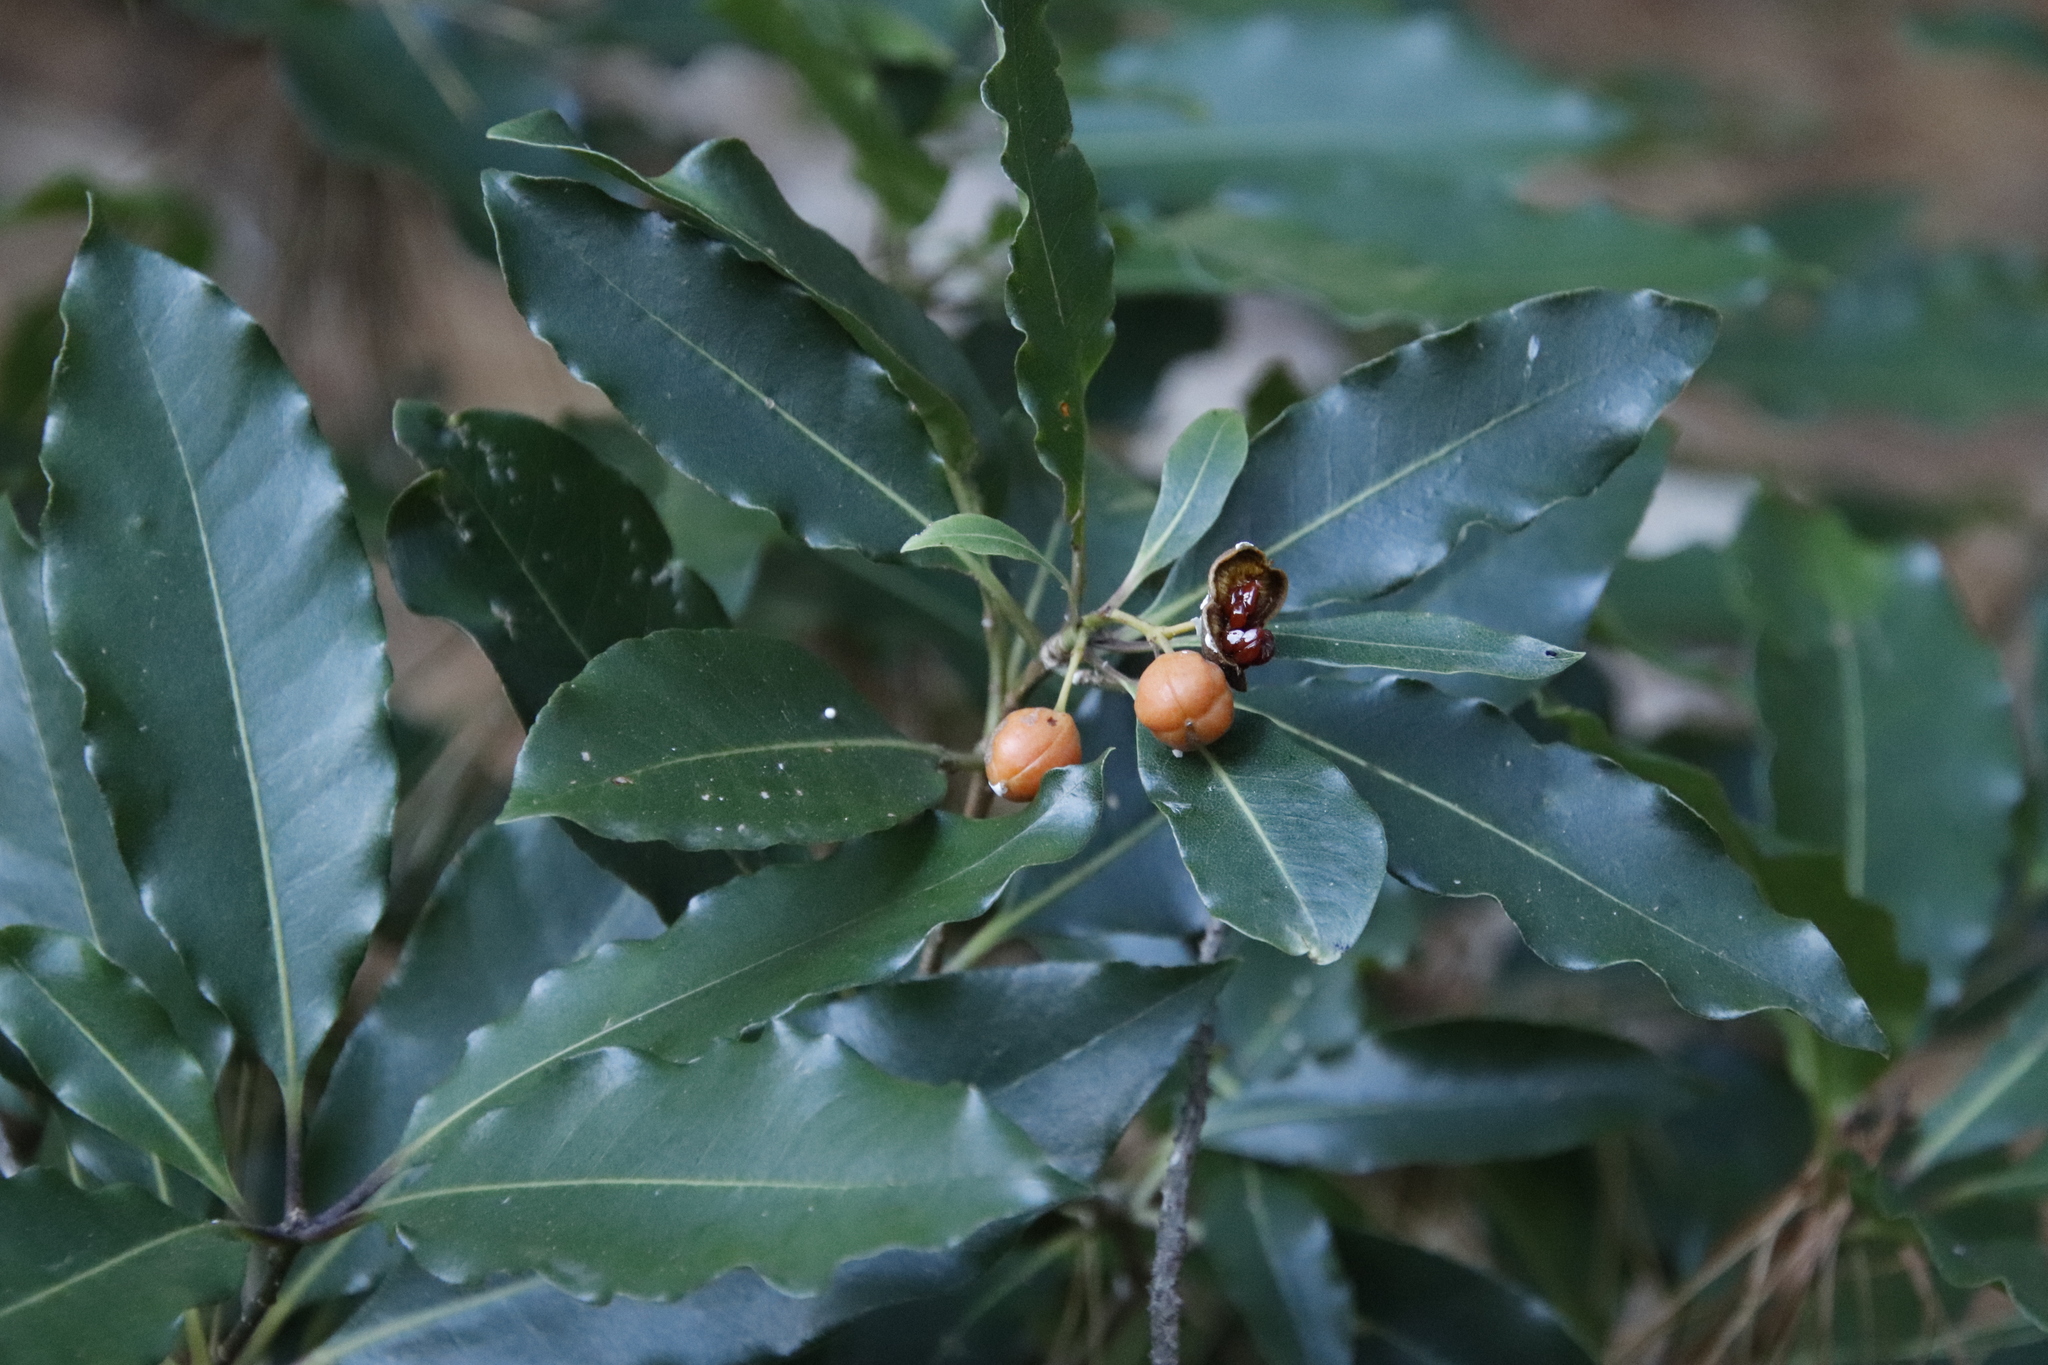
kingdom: Plantae
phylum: Tracheophyta
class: Magnoliopsida
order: Apiales
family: Pittosporaceae
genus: Pittosporum
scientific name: Pittosporum undulatum
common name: Australian cheesewood
